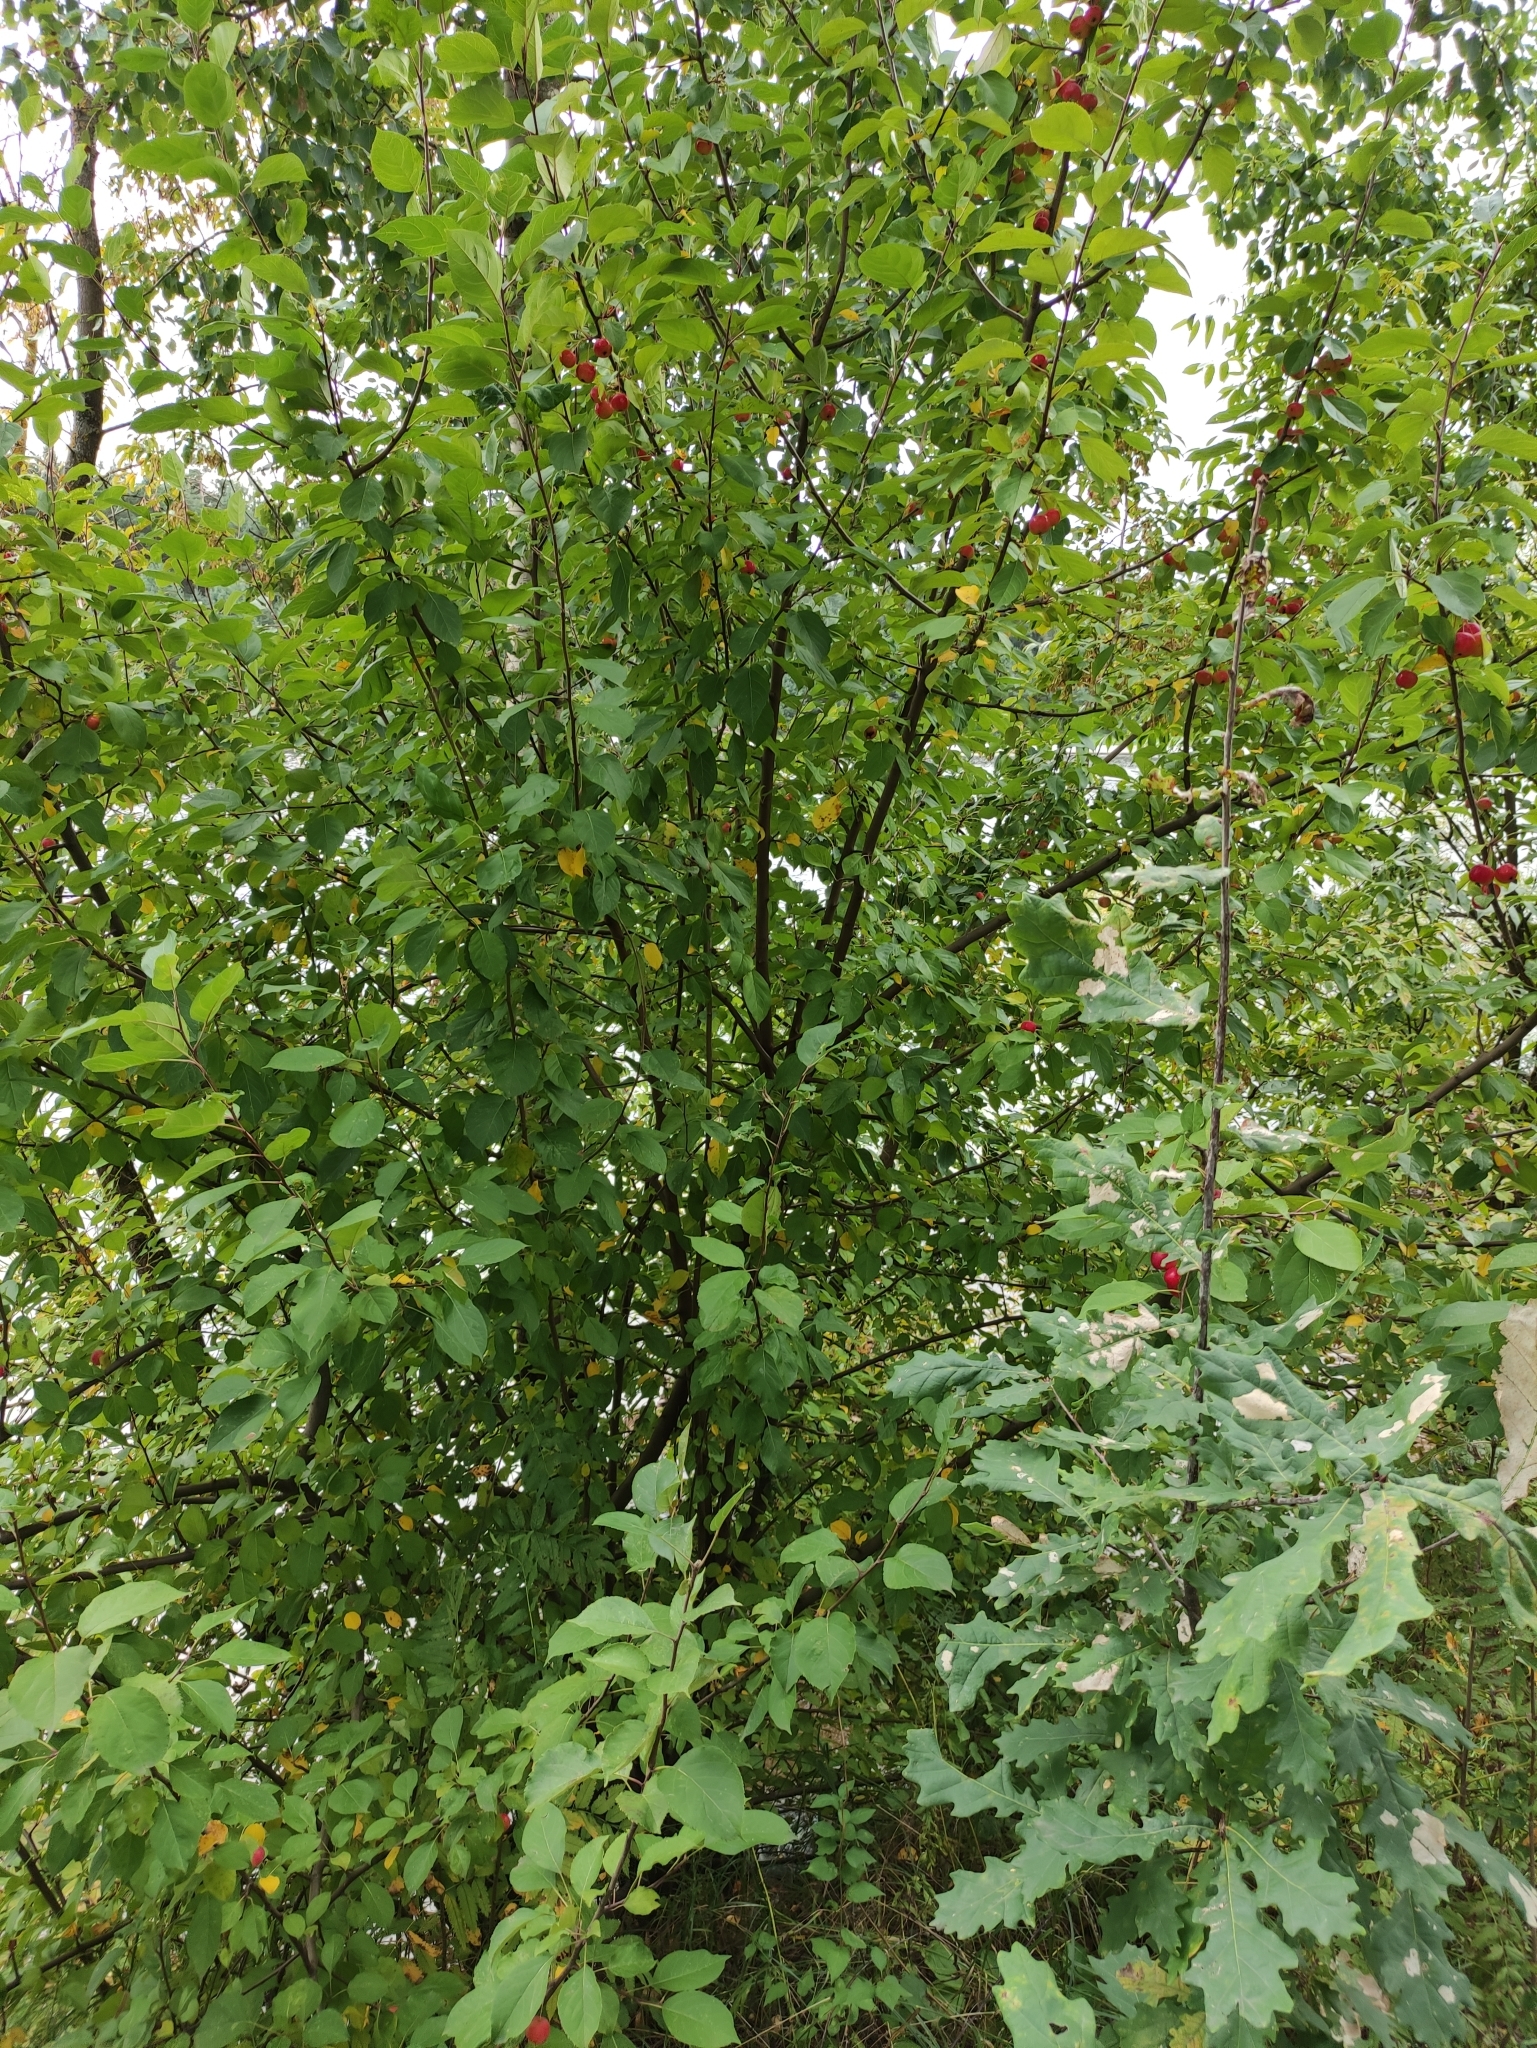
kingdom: Plantae
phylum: Tracheophyta
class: Magnoliopsida
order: Rosales
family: Rosaceae
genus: Malus
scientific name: Malus baccata
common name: Siberian crab
